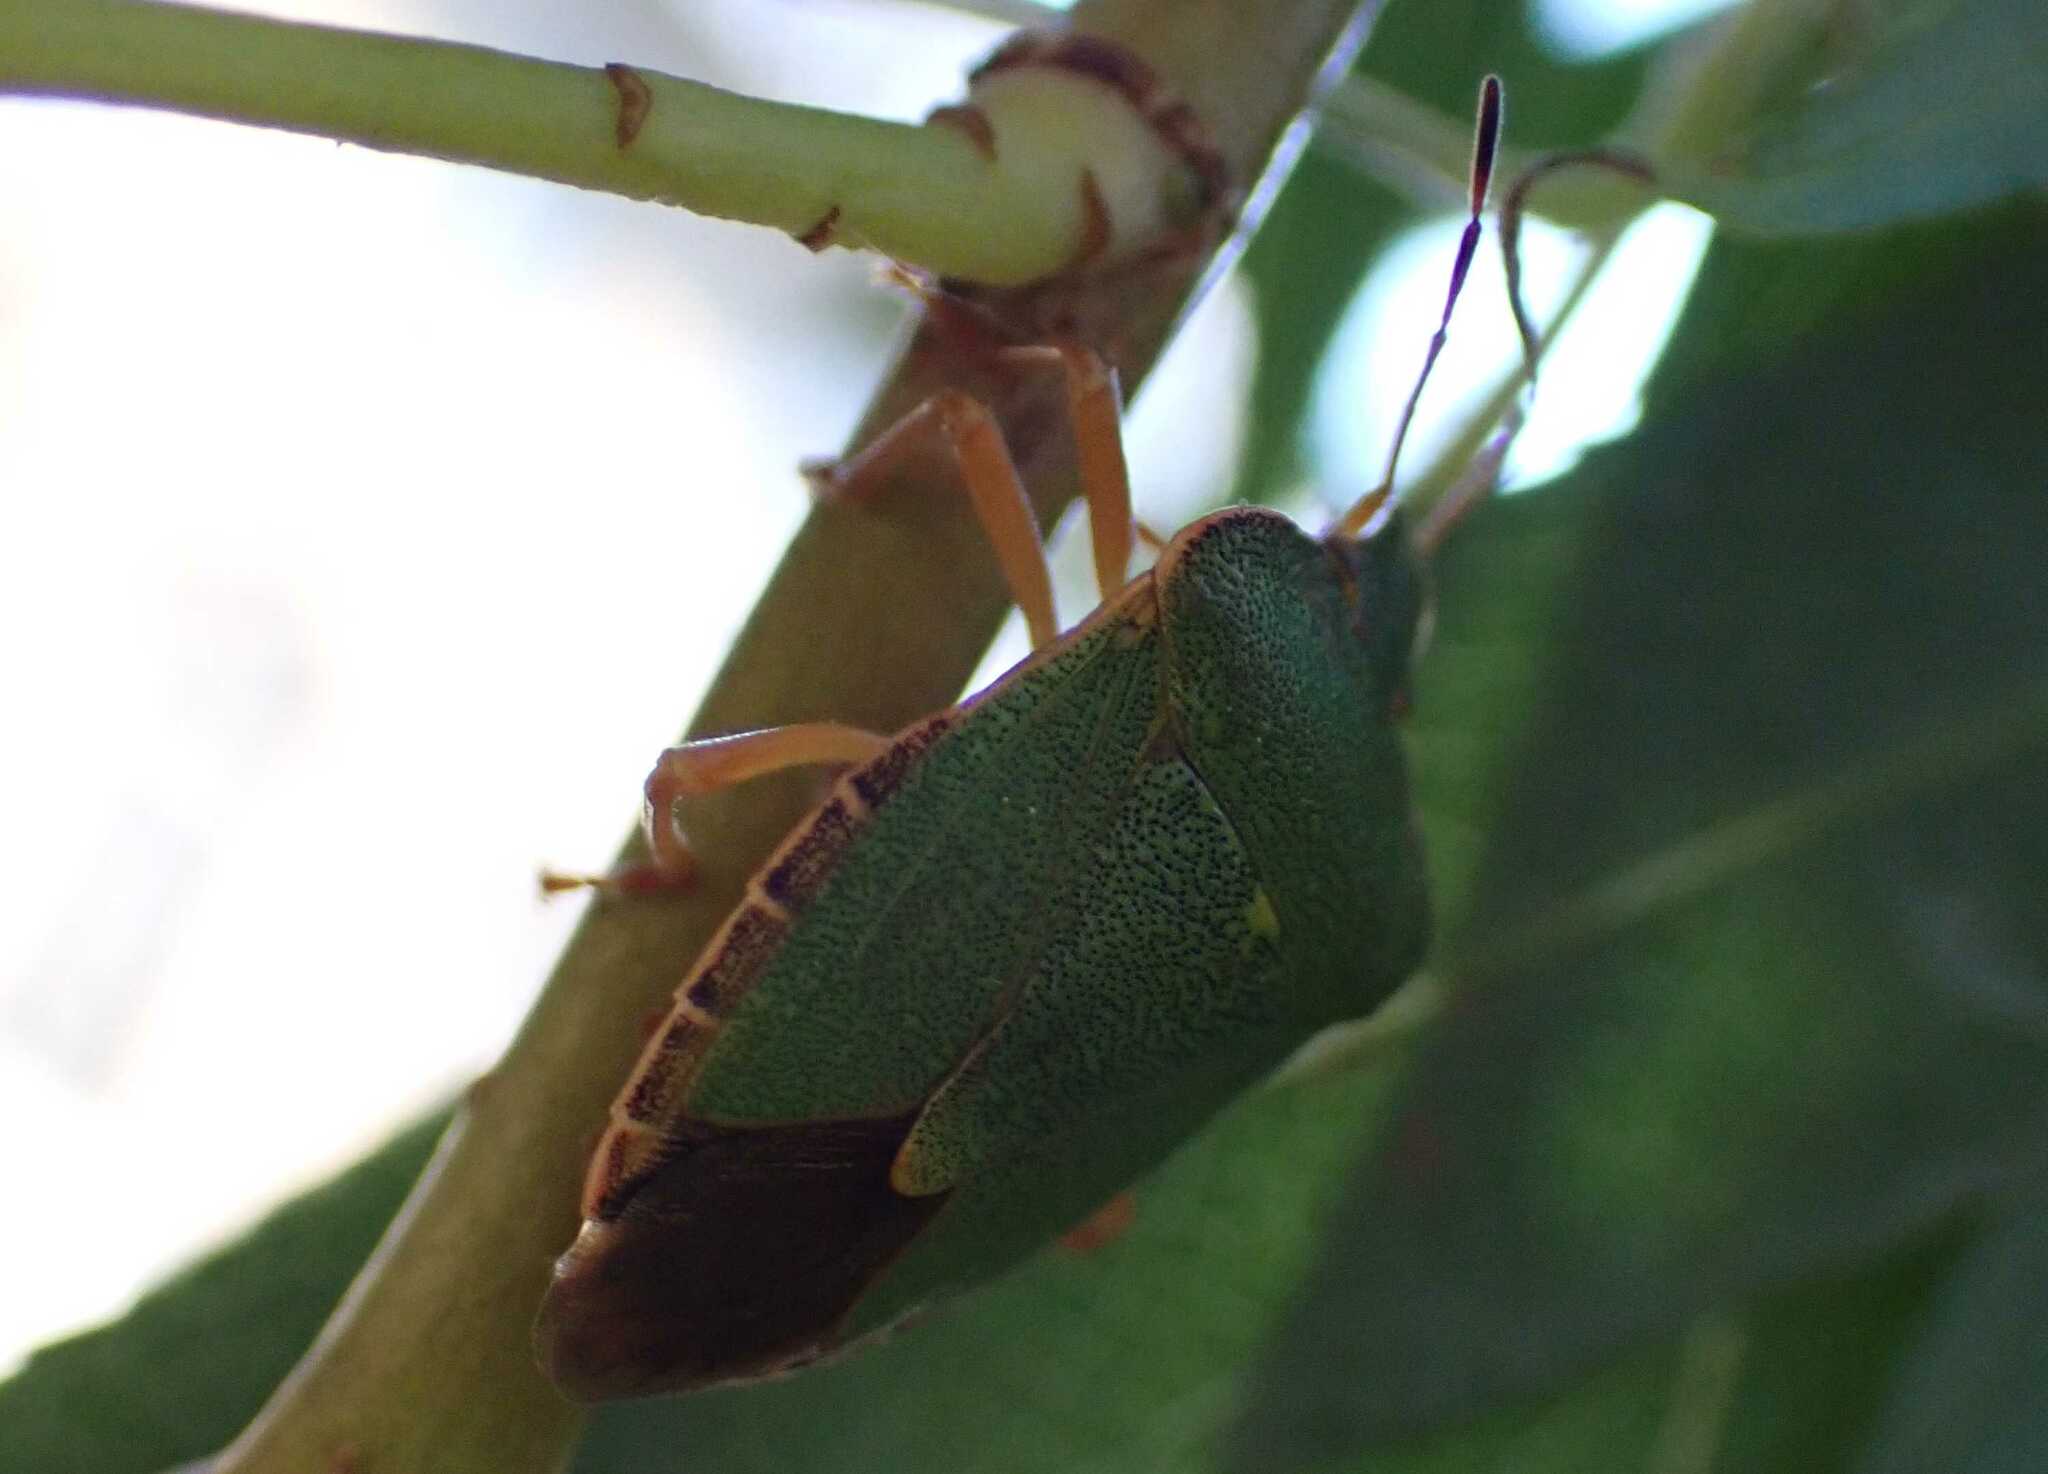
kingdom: Animalia
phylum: Arthropoda
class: Insecta
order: Hemiptera
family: Pentatomidae
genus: Palomena
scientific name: Palomena prasina
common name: Green shieldbug
